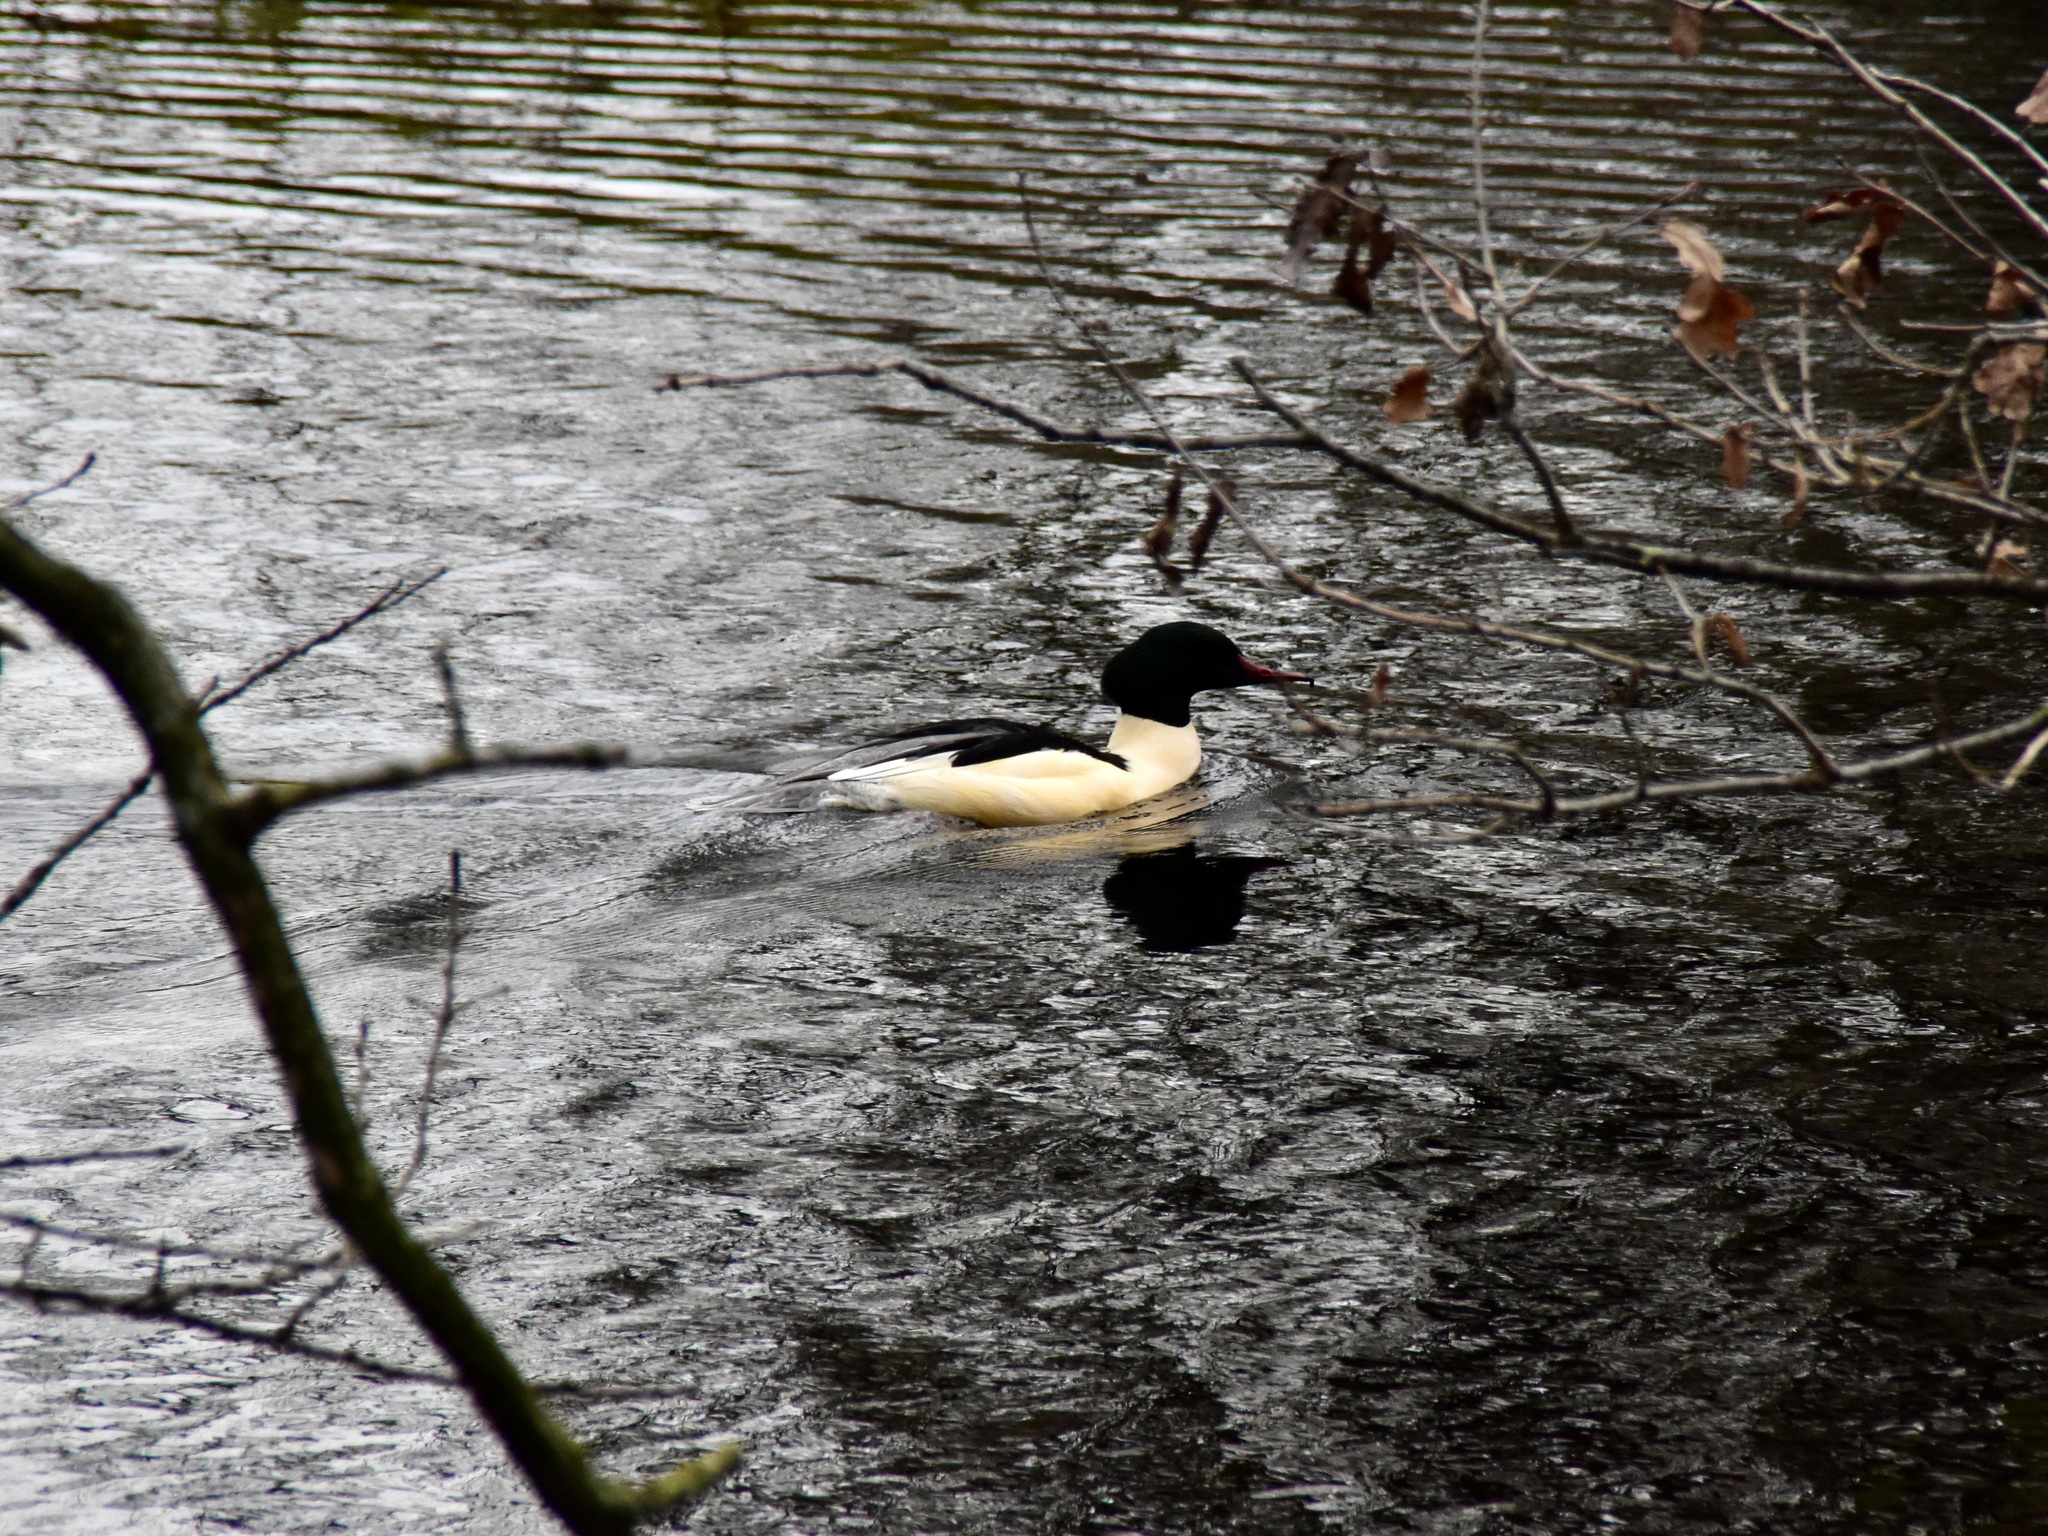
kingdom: Animalia
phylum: Chordata
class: Aves
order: Anseriformes
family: Anatidae
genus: Mergus
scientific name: Mergus merganser
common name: Common merganser
